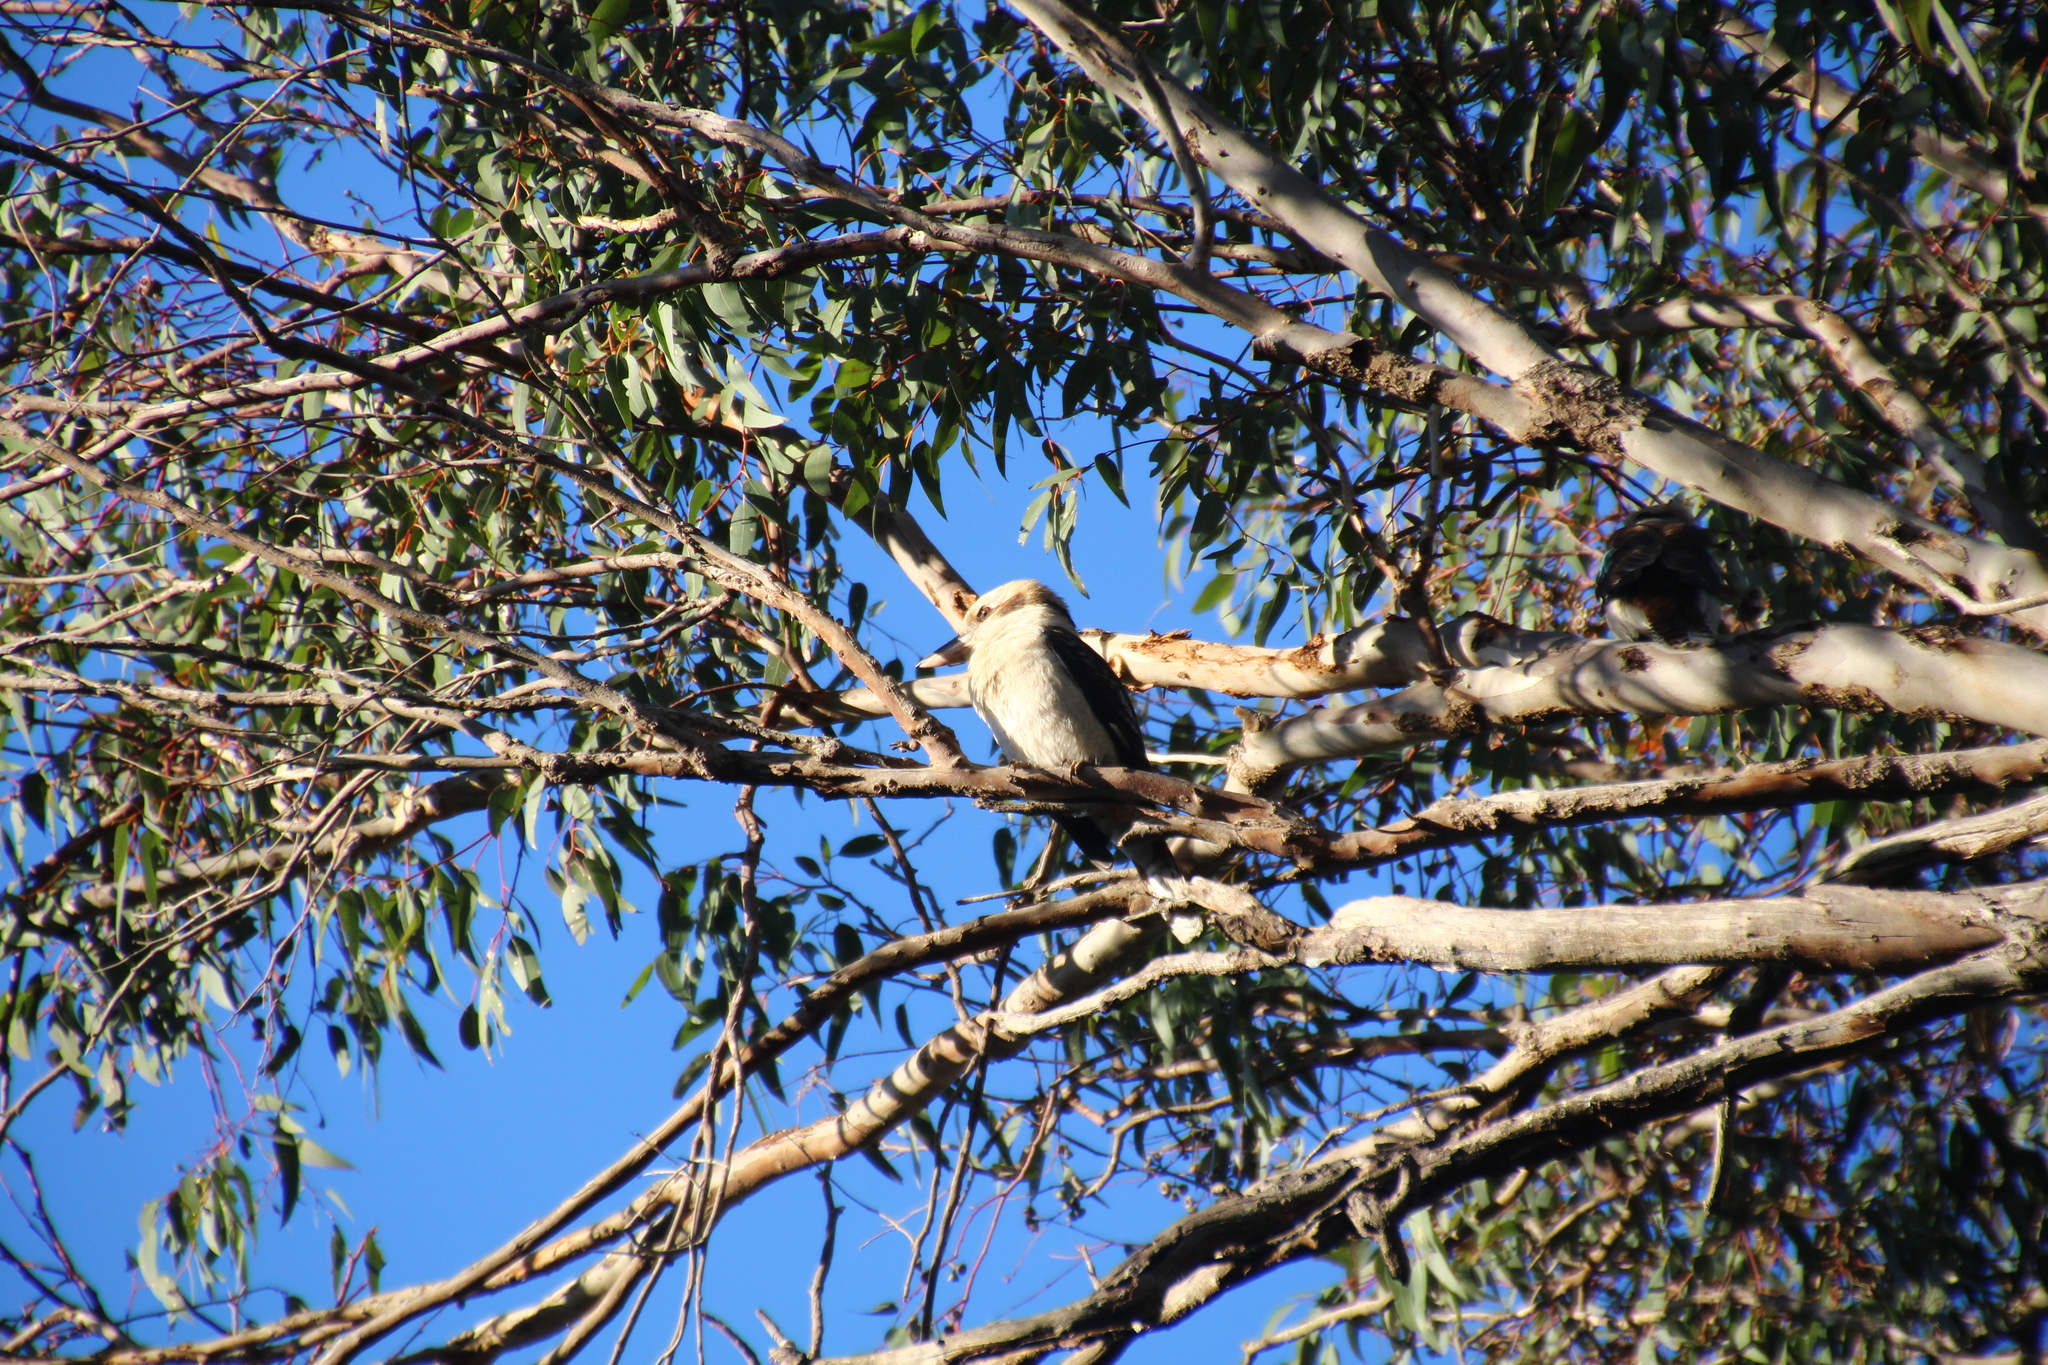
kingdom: Animalia
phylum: Chordata
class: Aves
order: Coraciiformes
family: Alcedinidae
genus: Dacelo
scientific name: Dacelo novaeguineae
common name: Laughing kookaburra
